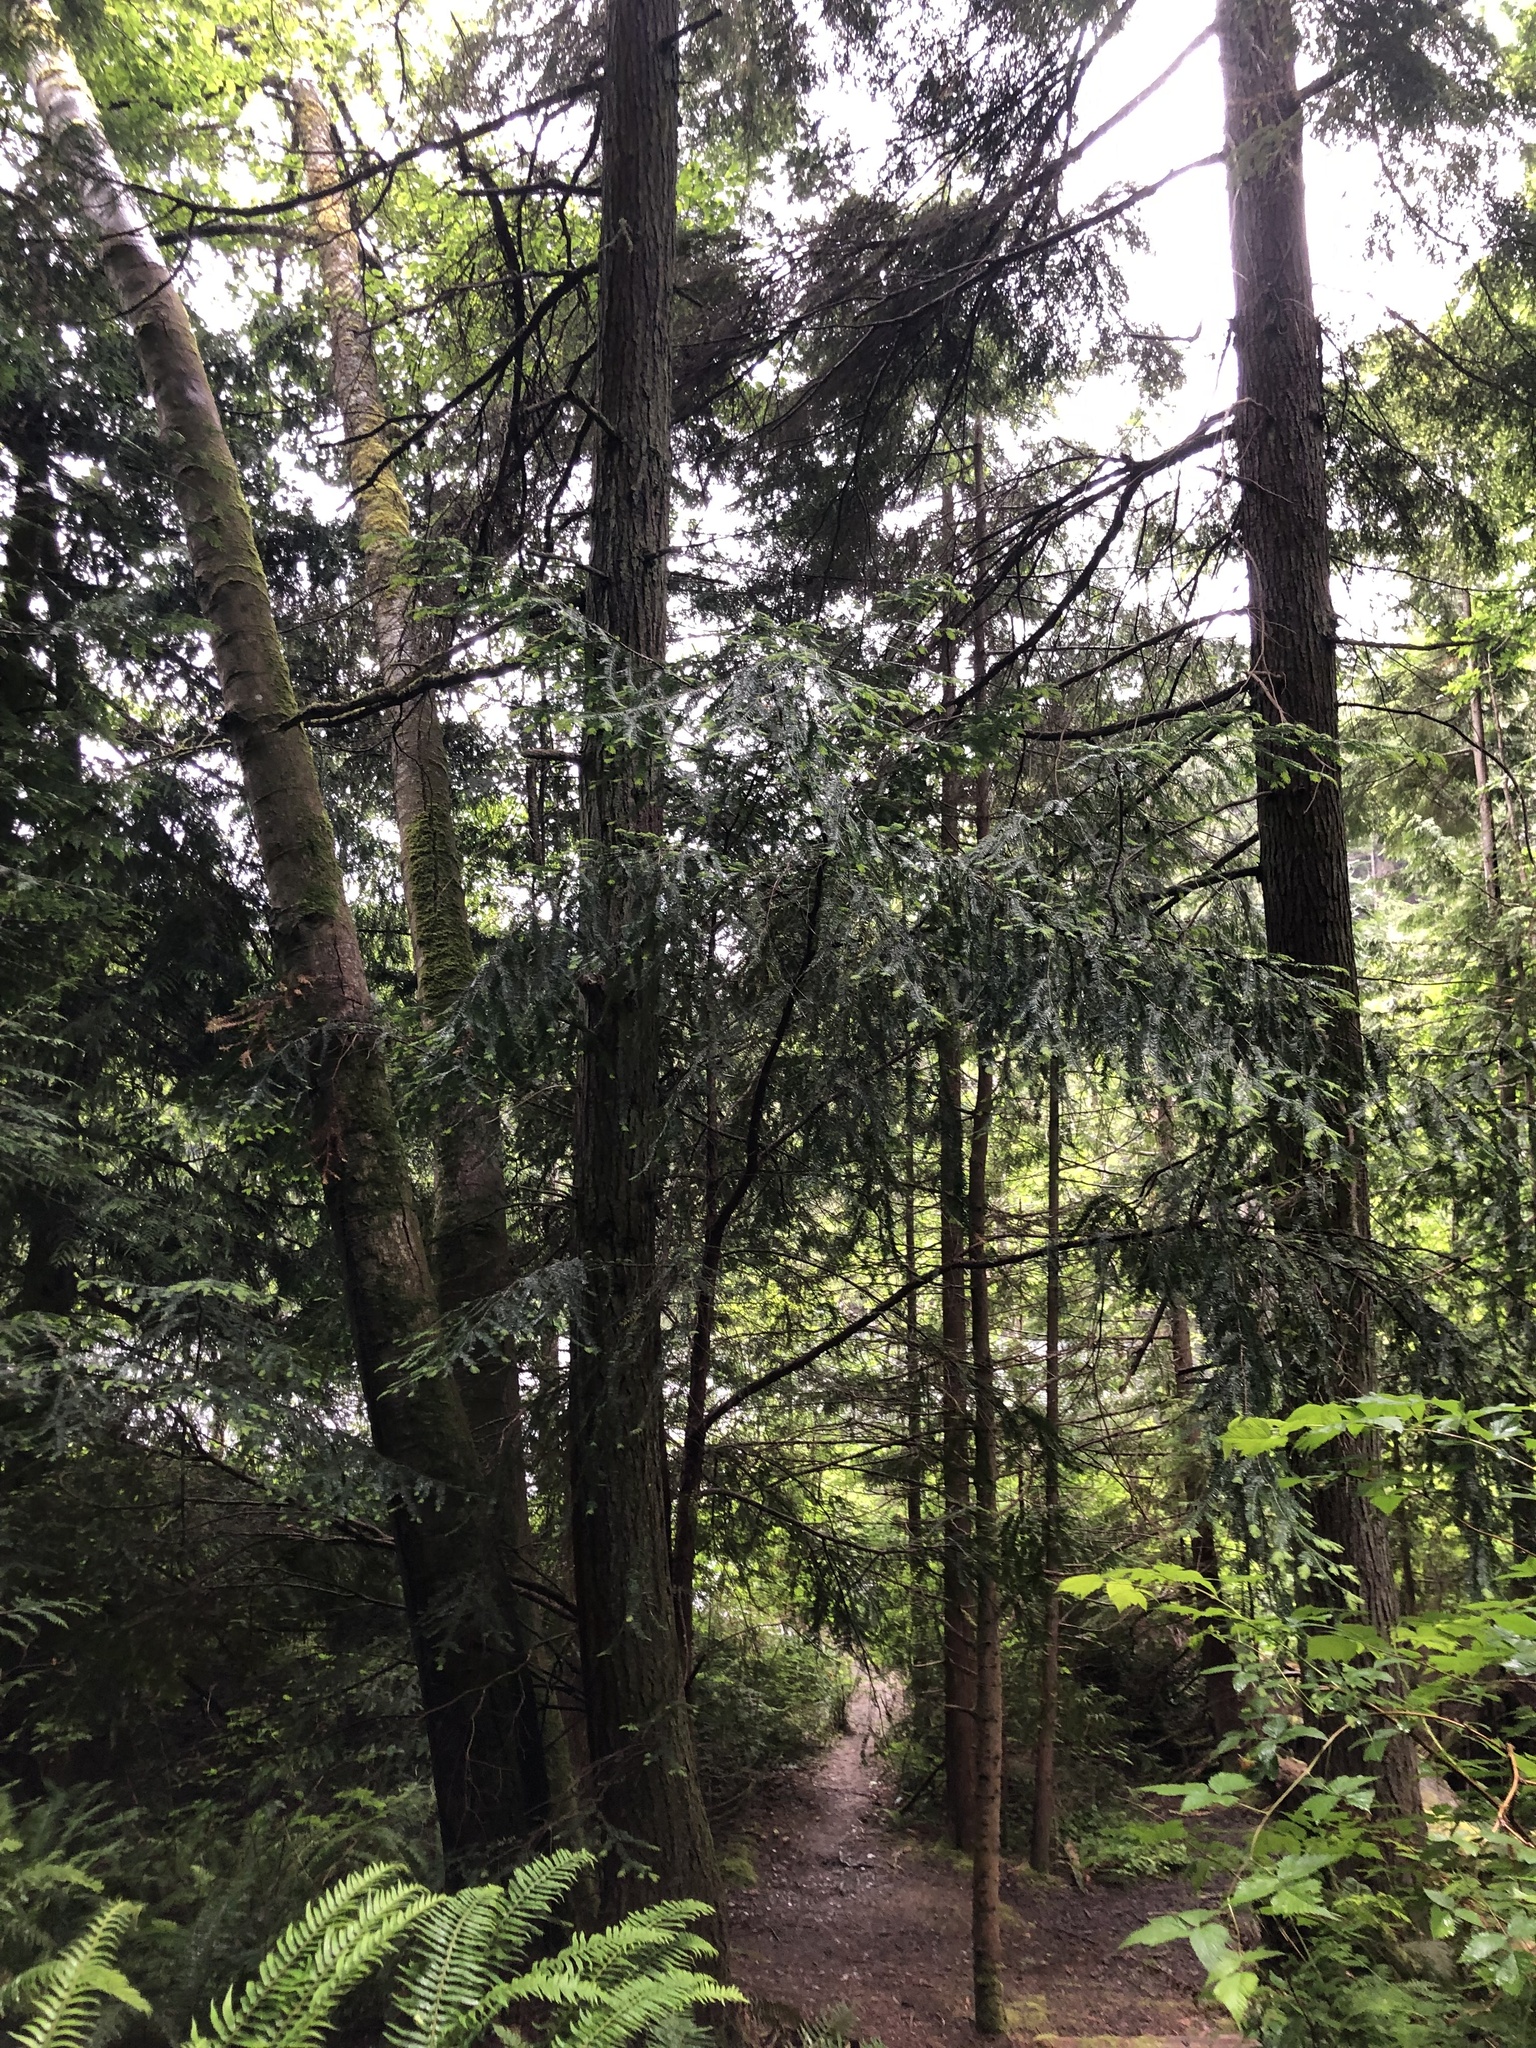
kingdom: Plantae
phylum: Tracheophyta
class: Pinopsida
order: Pinales
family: Taxaceae
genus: Taxus
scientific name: Taxus brevifolia
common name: Pacific yew
